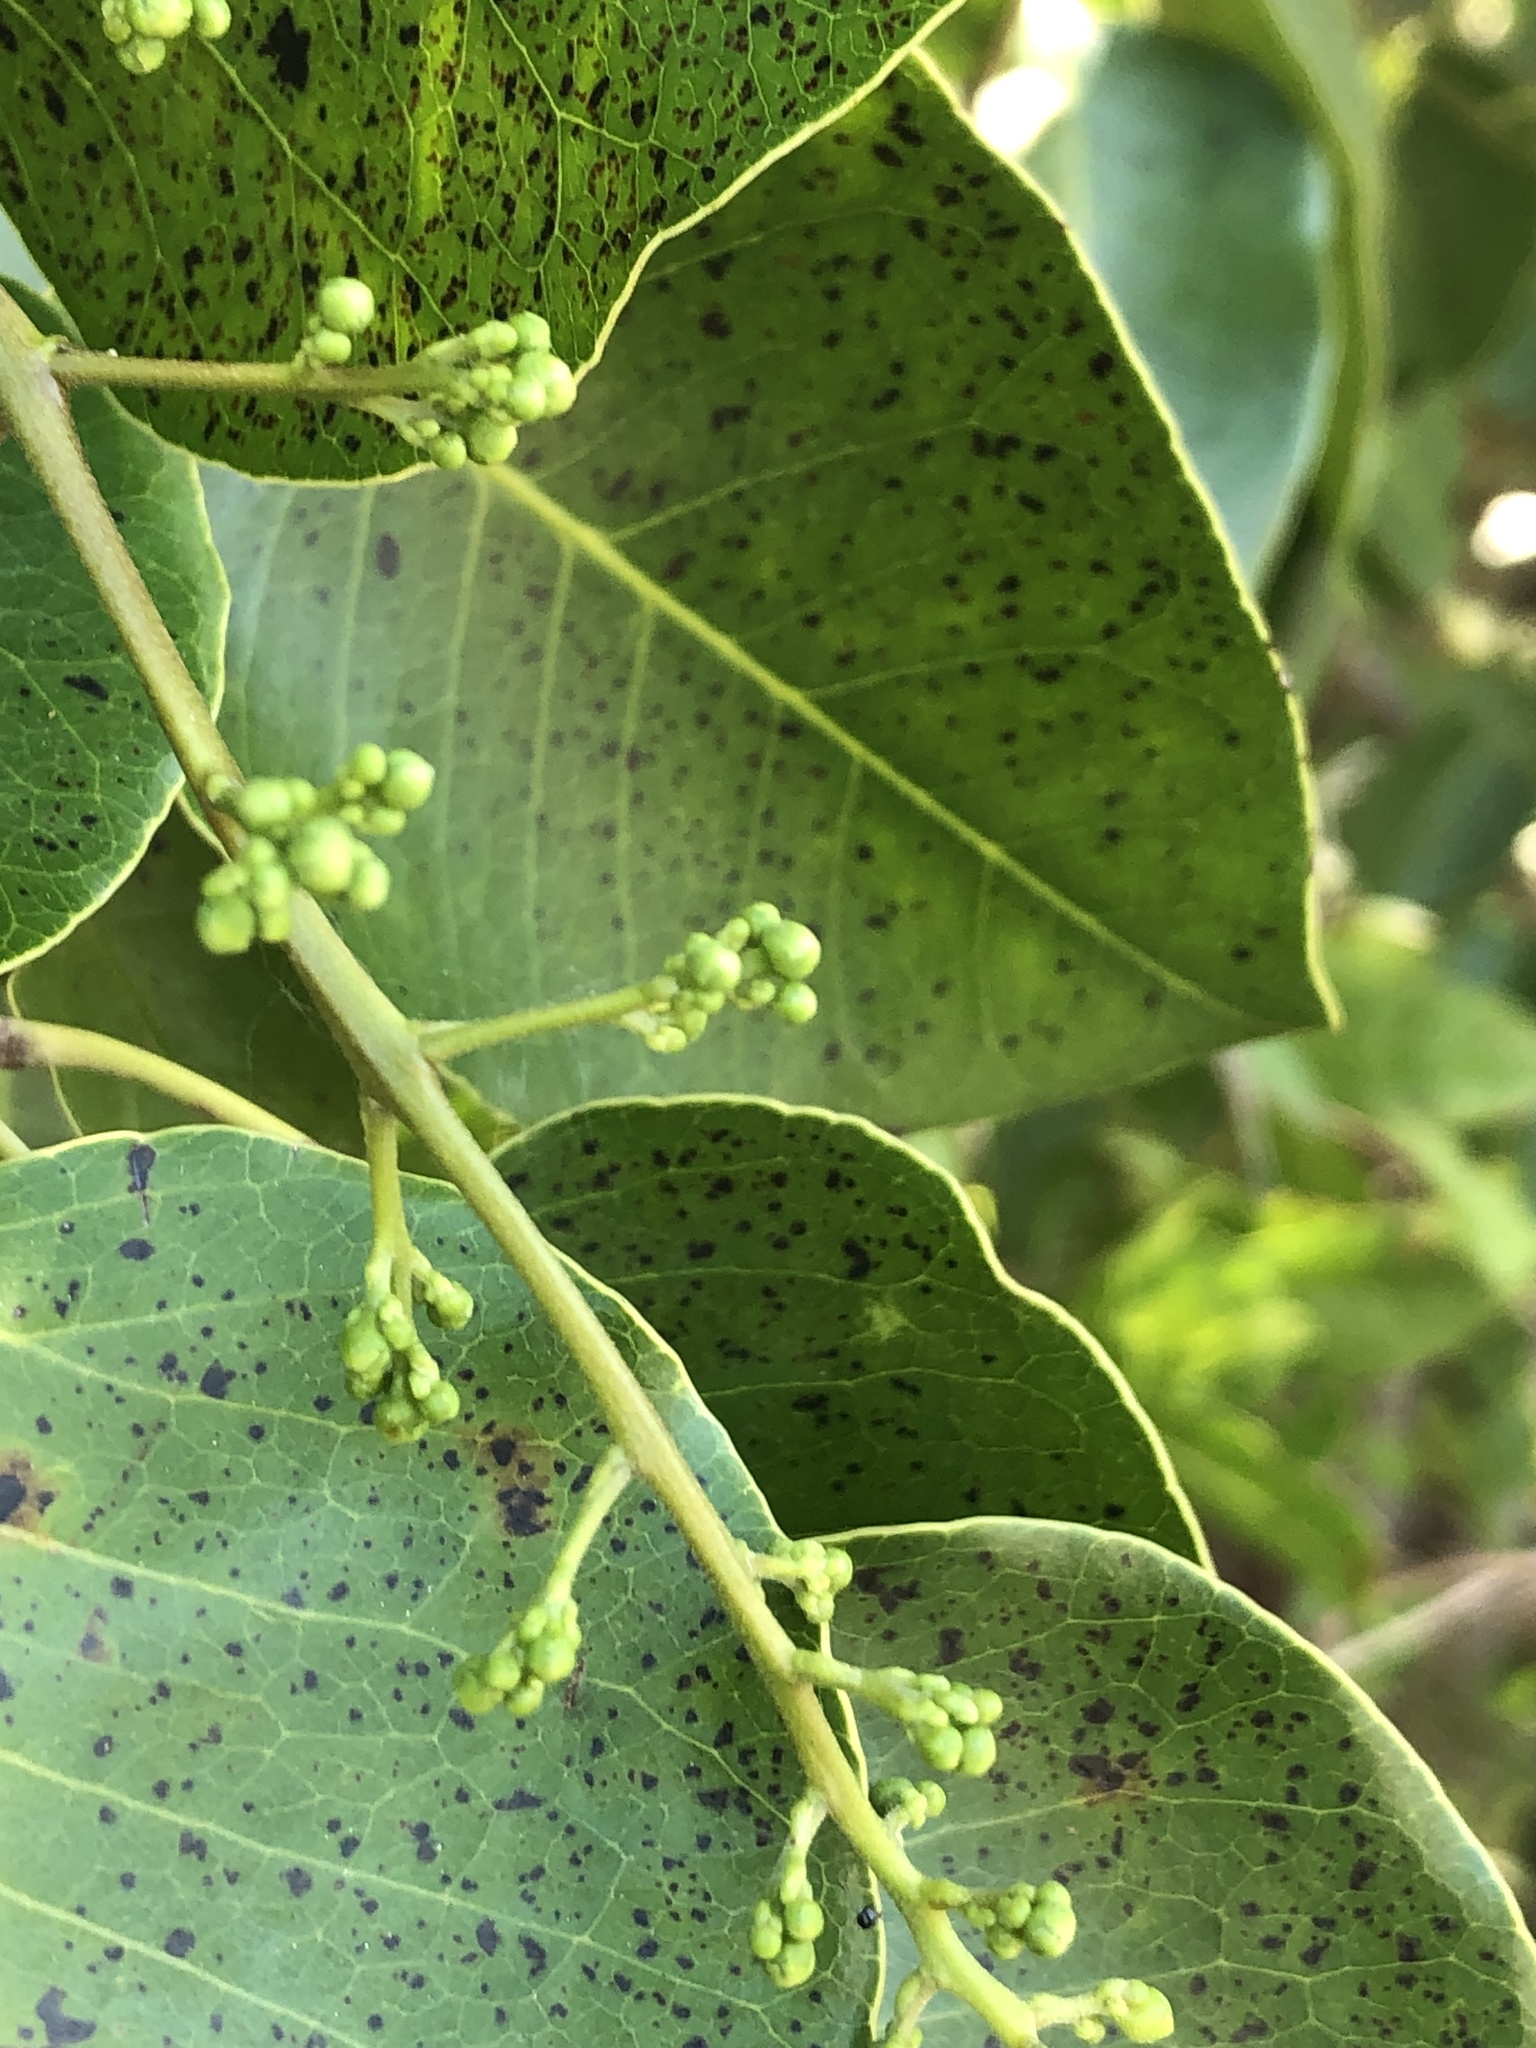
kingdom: Plantae
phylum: Tracheophyta
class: Magnoliopsida
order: Sapindales
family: Anacardiaceae
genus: Metopium
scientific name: Metopium toxiferum
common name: Florida poisontree
